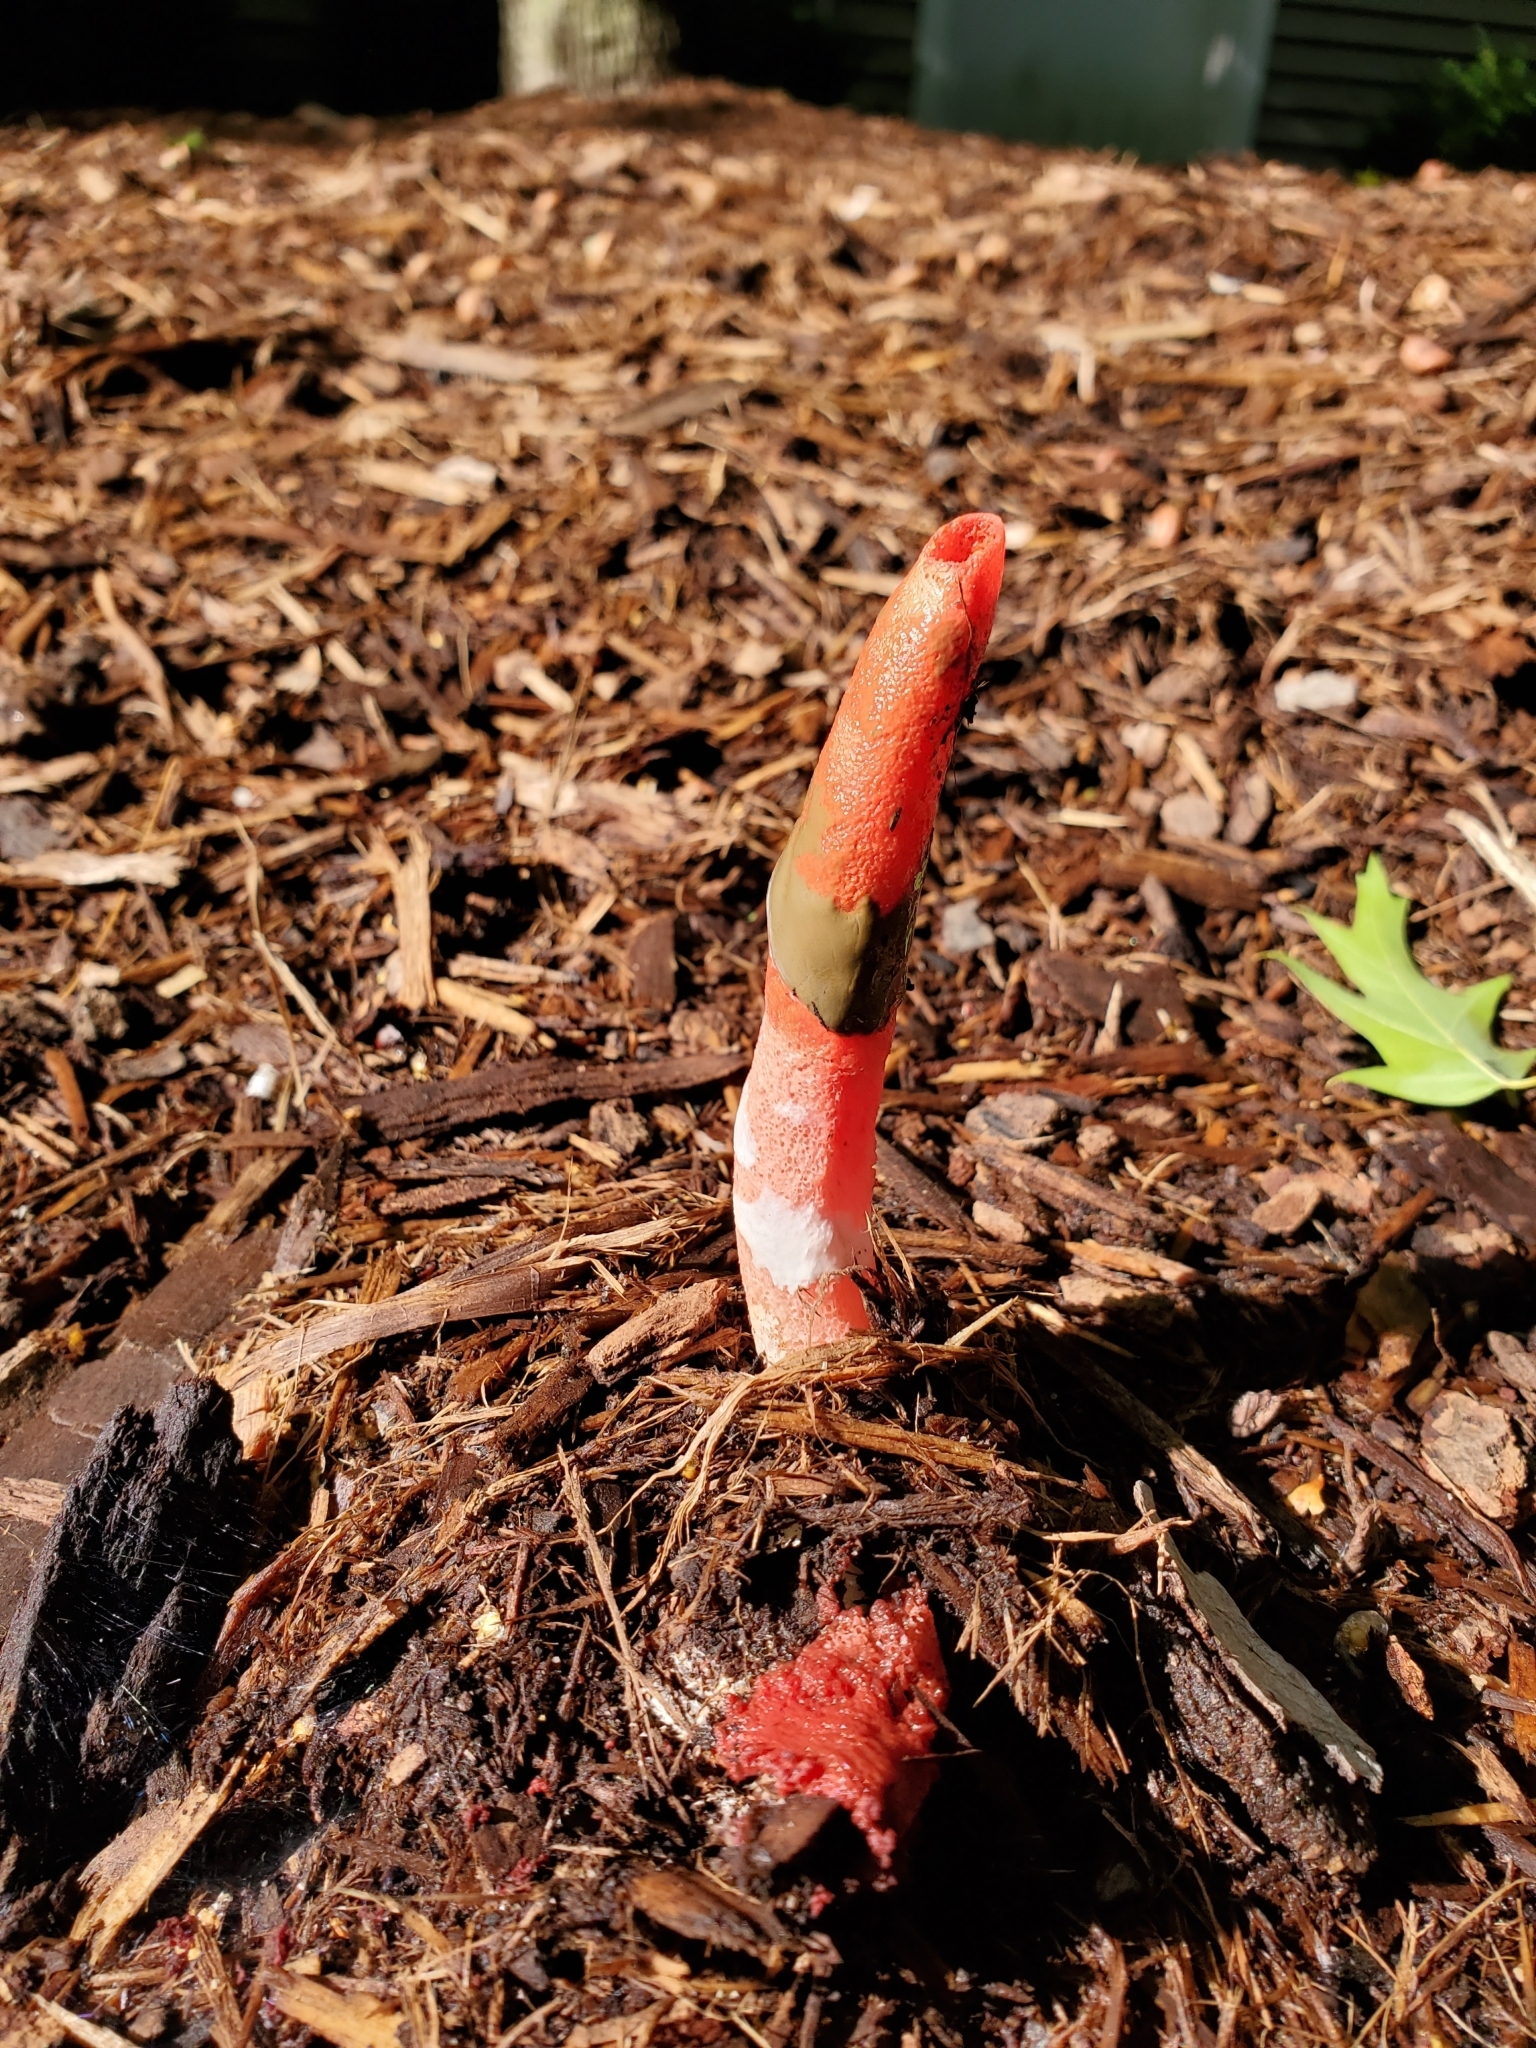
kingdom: Fungi
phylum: Basidiomycota
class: Agaricomycetes
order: Phallales
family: Phallaceae
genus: Mutinus
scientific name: Mutinus elegans
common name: Devil's dipstick
